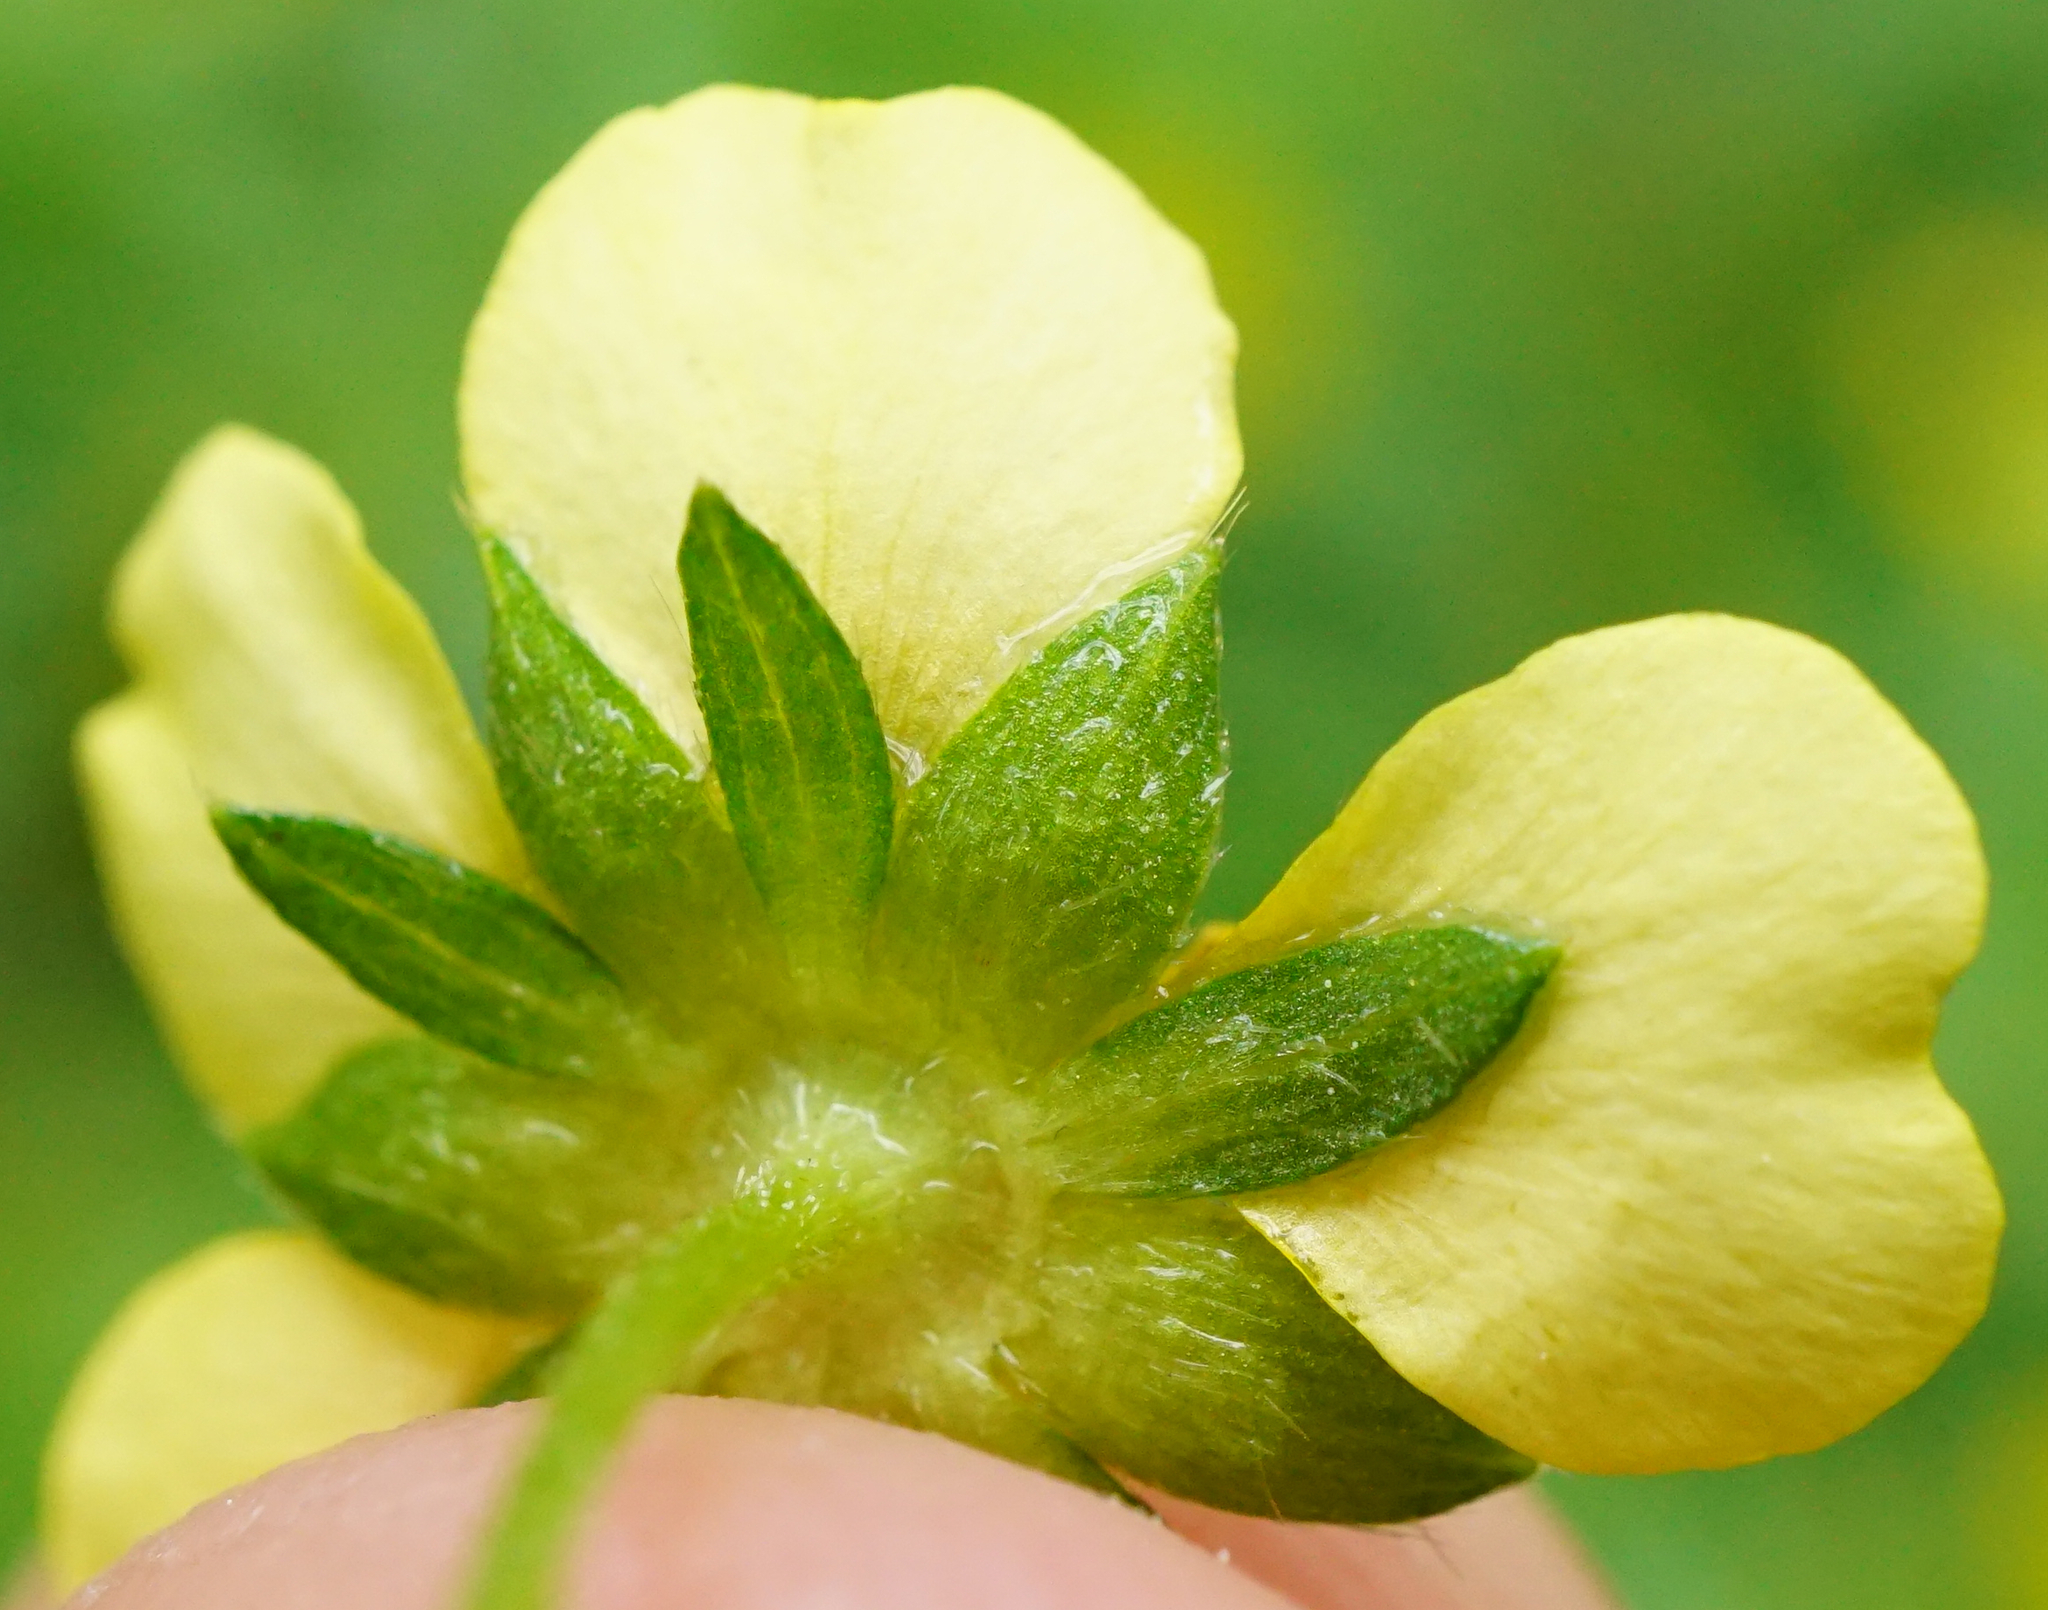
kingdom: Plantae
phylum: Tracheophyta
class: Magnoliopsida
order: Rosales
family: Rosaceae
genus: Potentilla
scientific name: Potentilla erecta
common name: Tormentil
